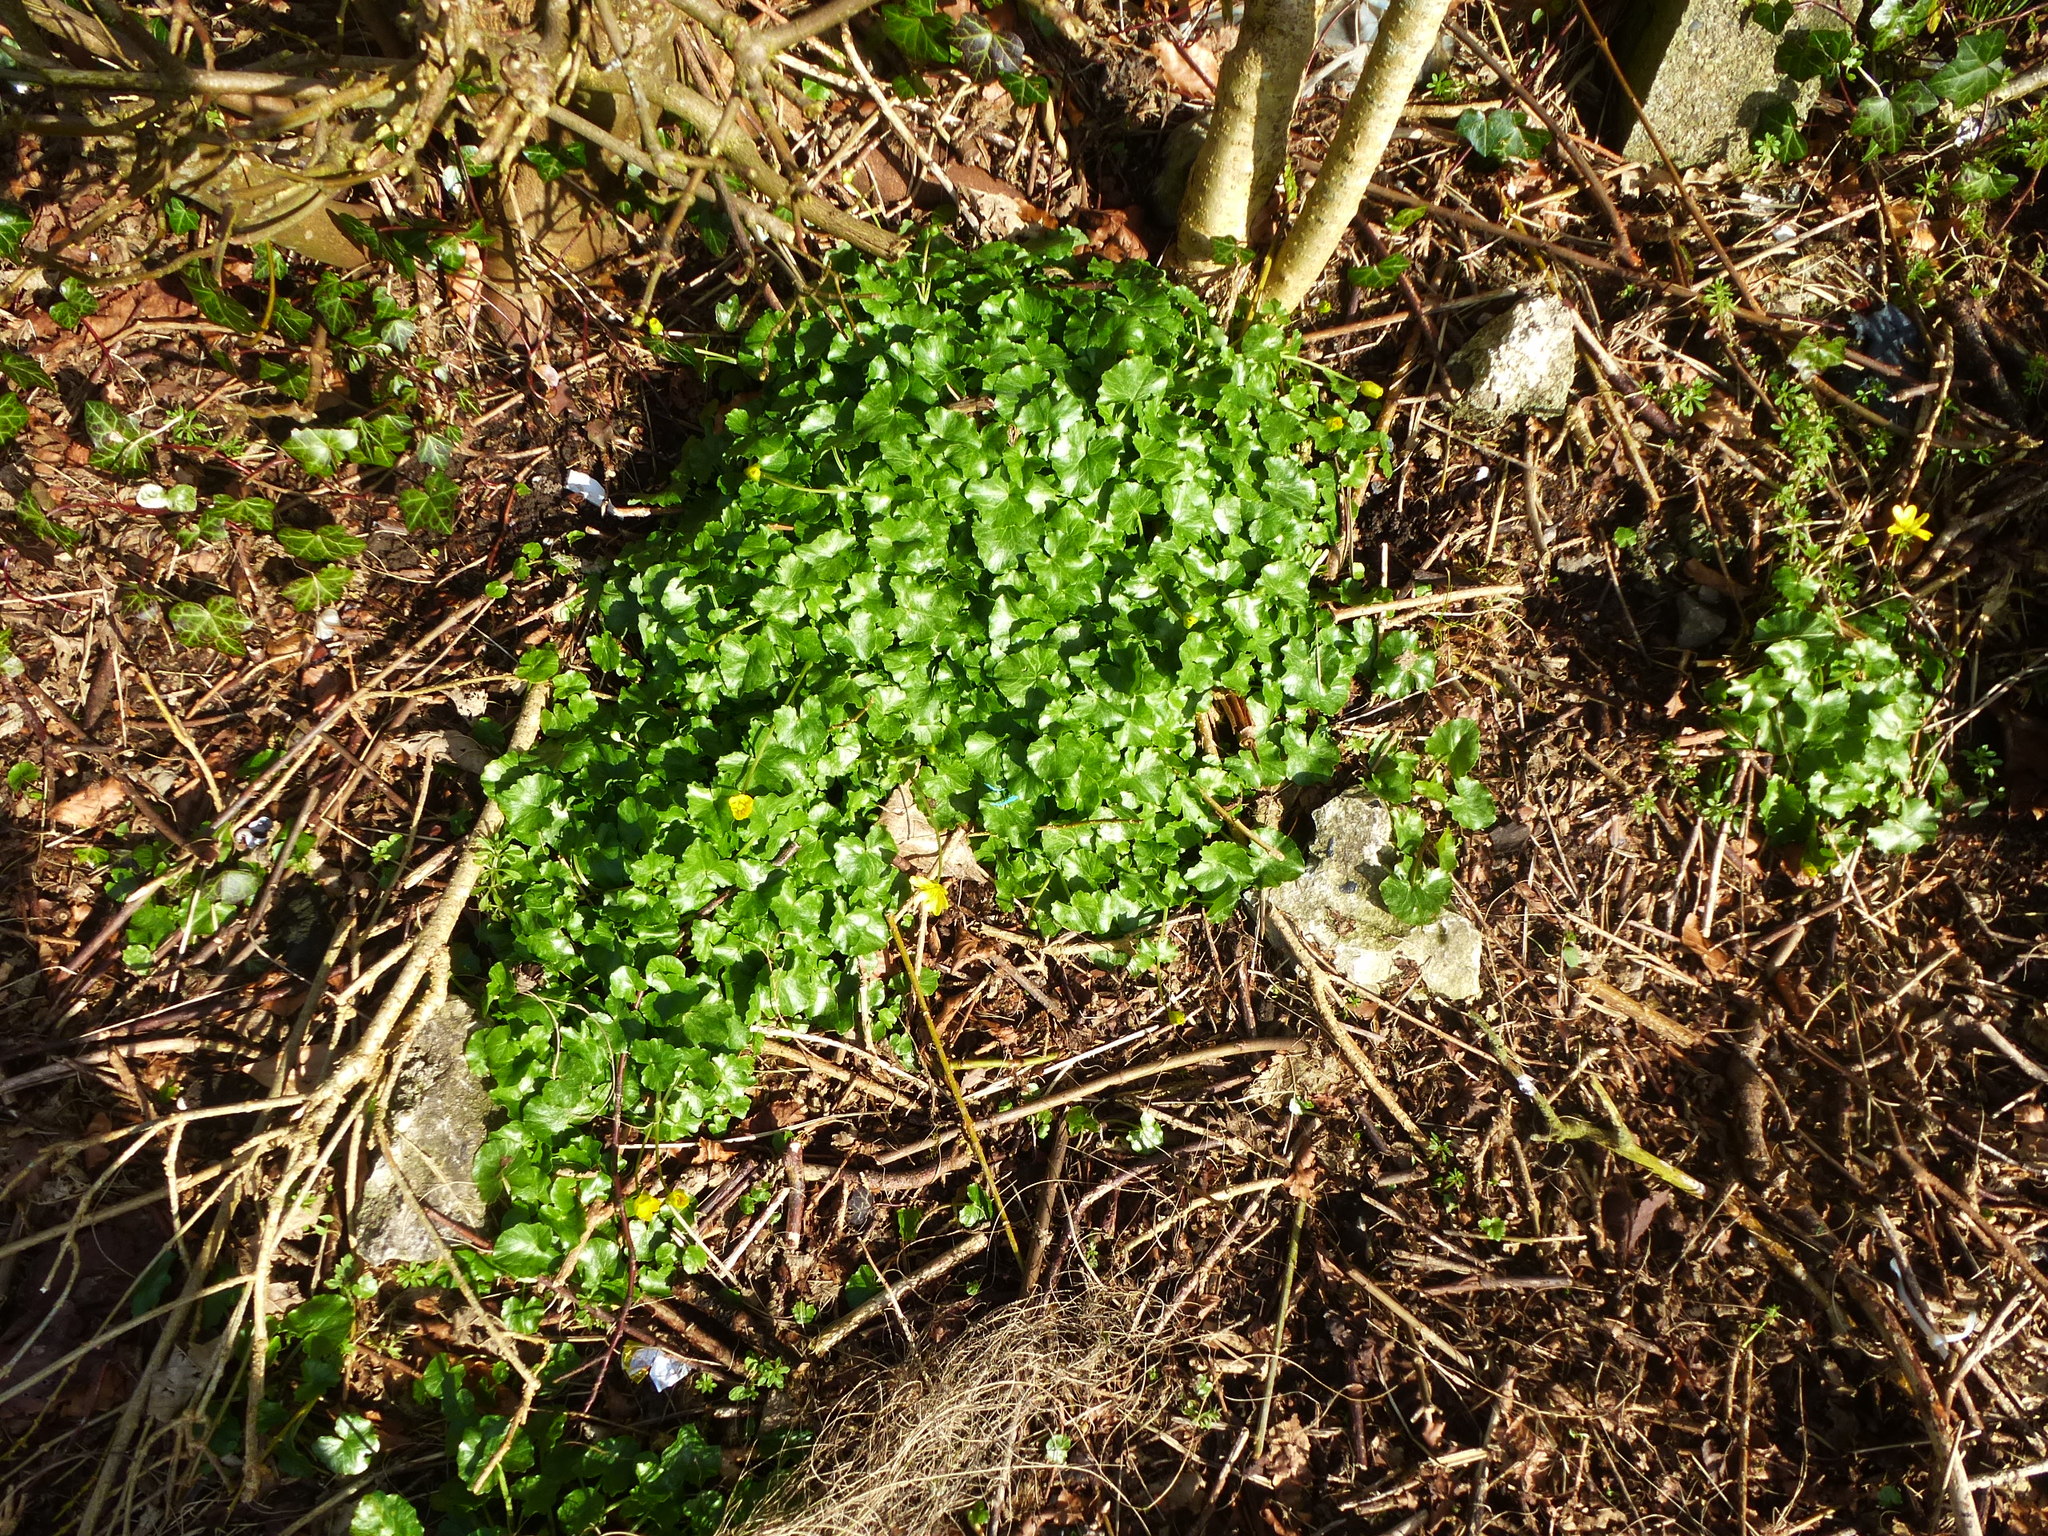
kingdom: Plantae
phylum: Tracheophyta
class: Magnoliopsida
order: Ranunculales
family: Ranunculaceae
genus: Ficaria
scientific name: Ficaria verna
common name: Lesser celandine
